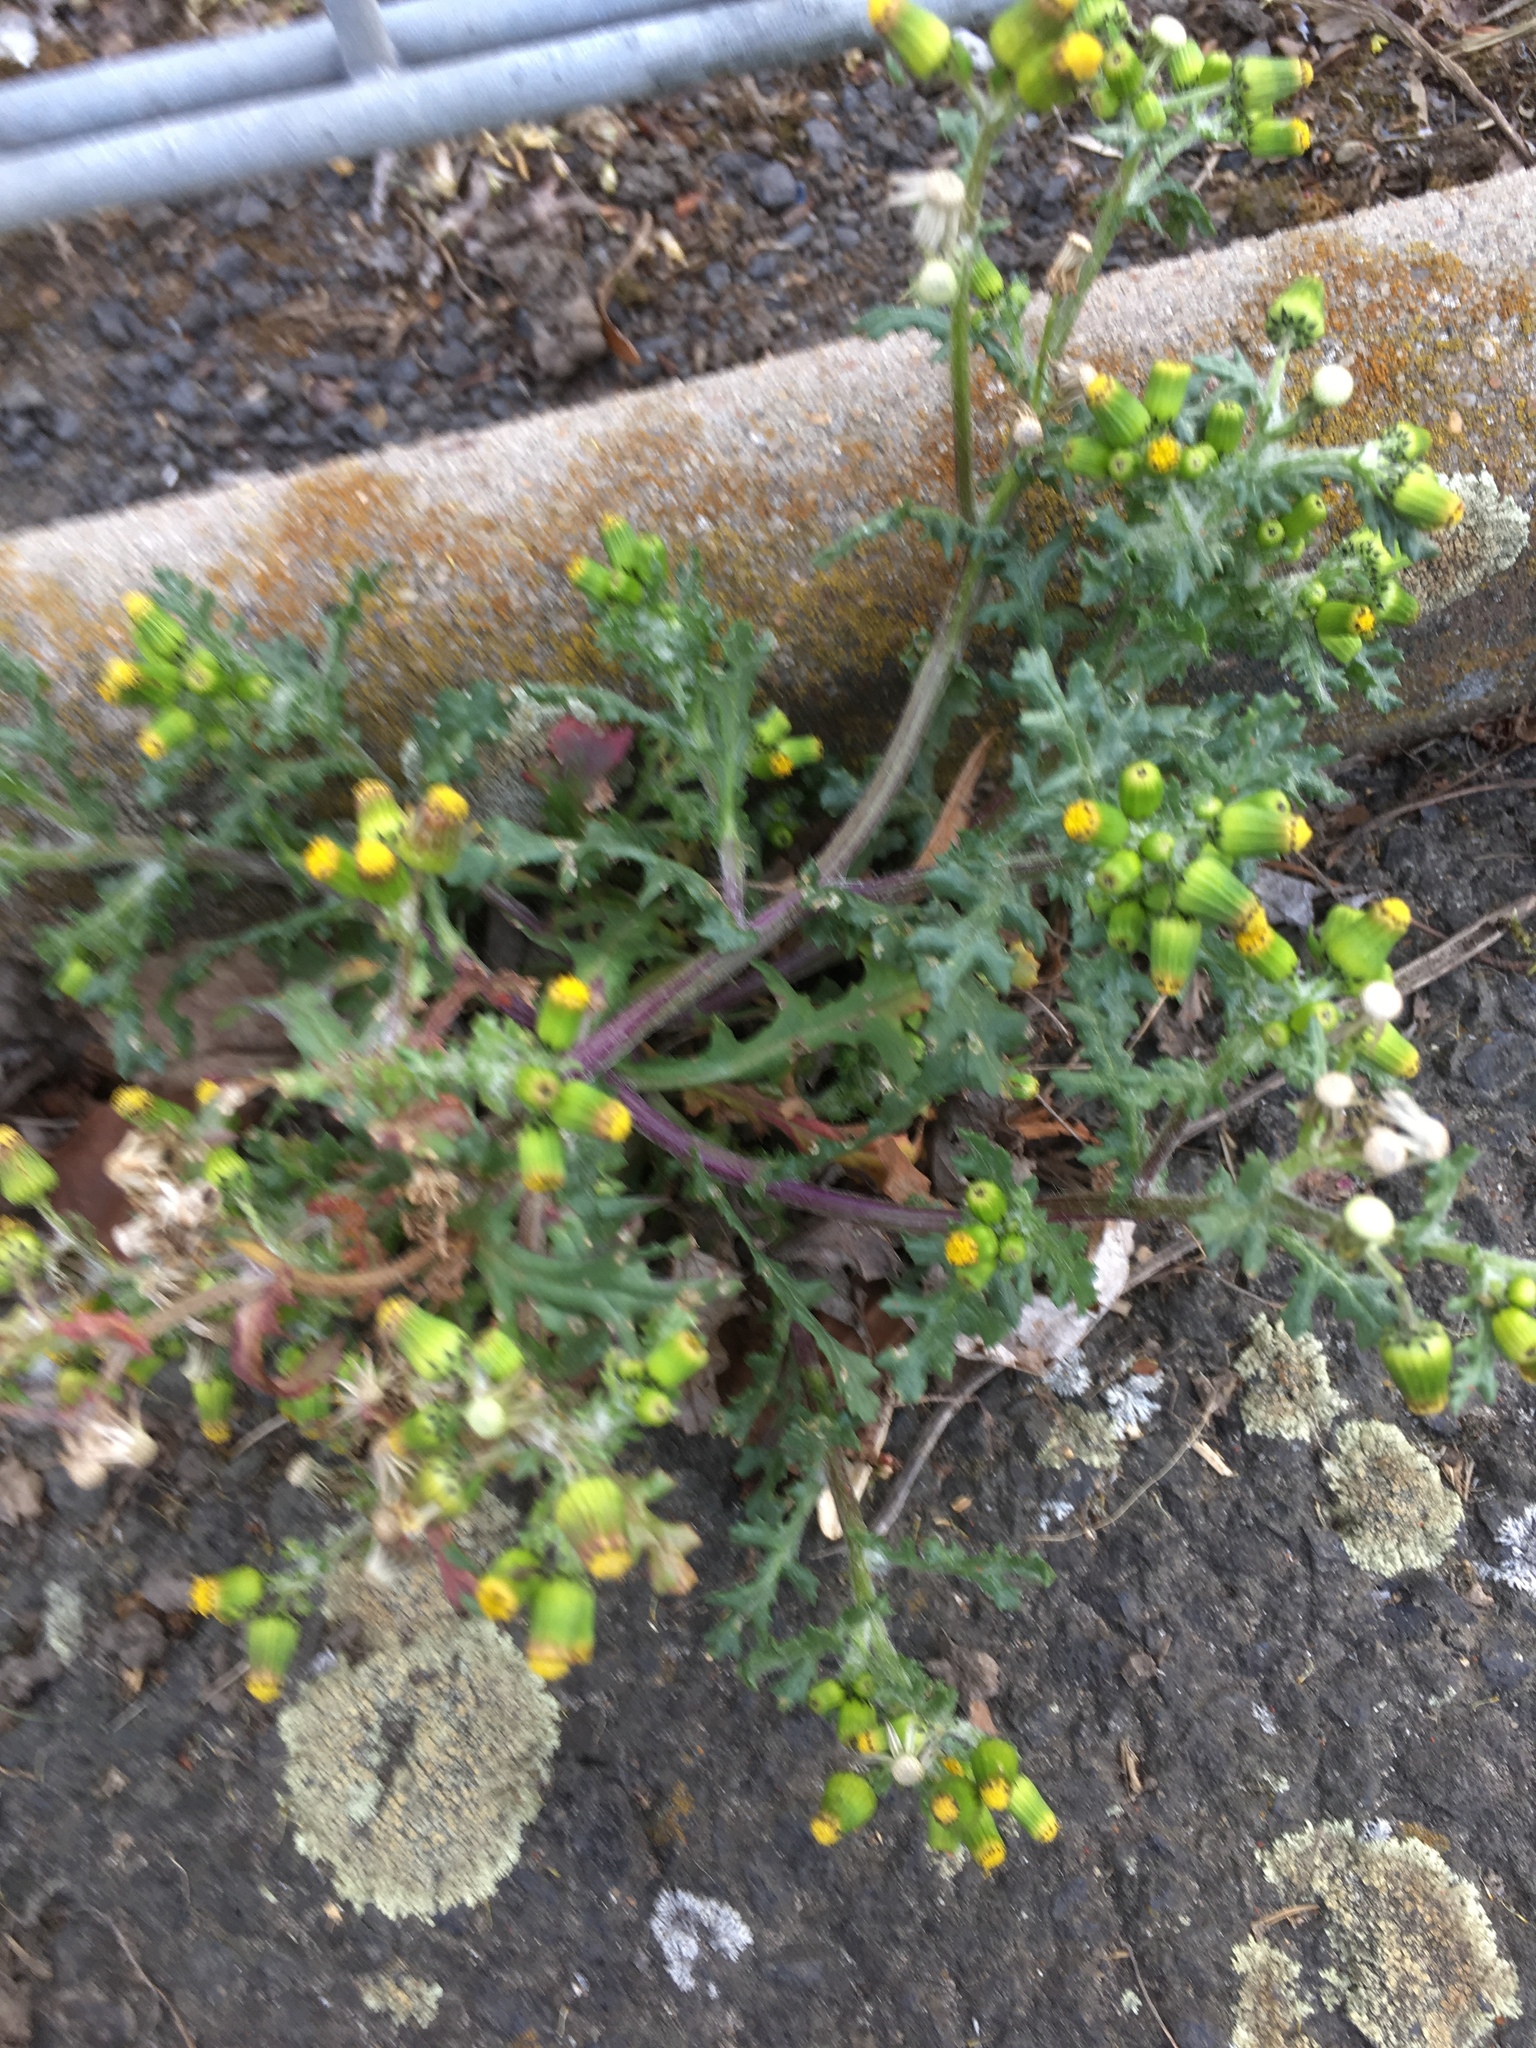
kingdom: Plantae
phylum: Tracheophyta
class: Magnoliopsida
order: Asterales
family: Asteraceae
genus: Senecio
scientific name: Senecio vulgaris
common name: Old-man-in-the-spring
